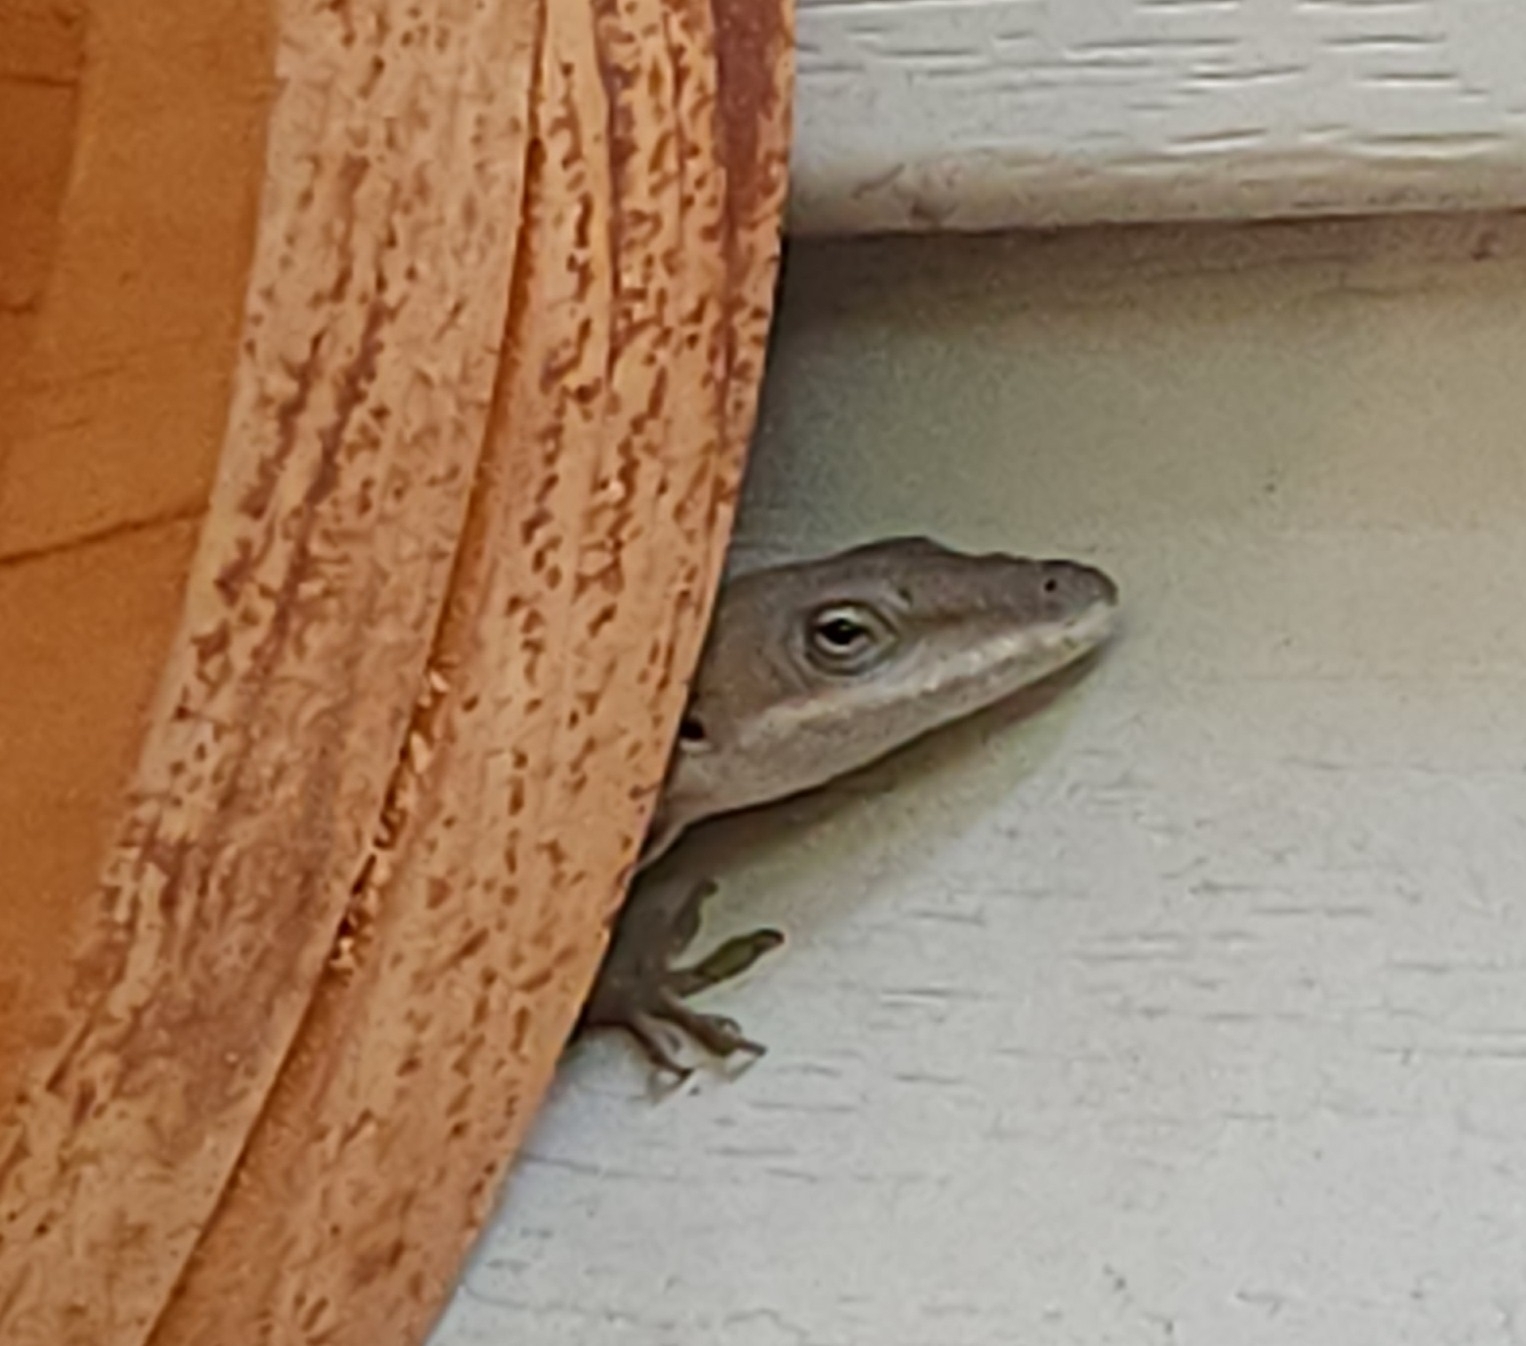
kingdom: Animalia
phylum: Chordata
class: Squamata
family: Dactyloidae
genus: Anolis
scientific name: Anolis carolinensis
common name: Green anole
